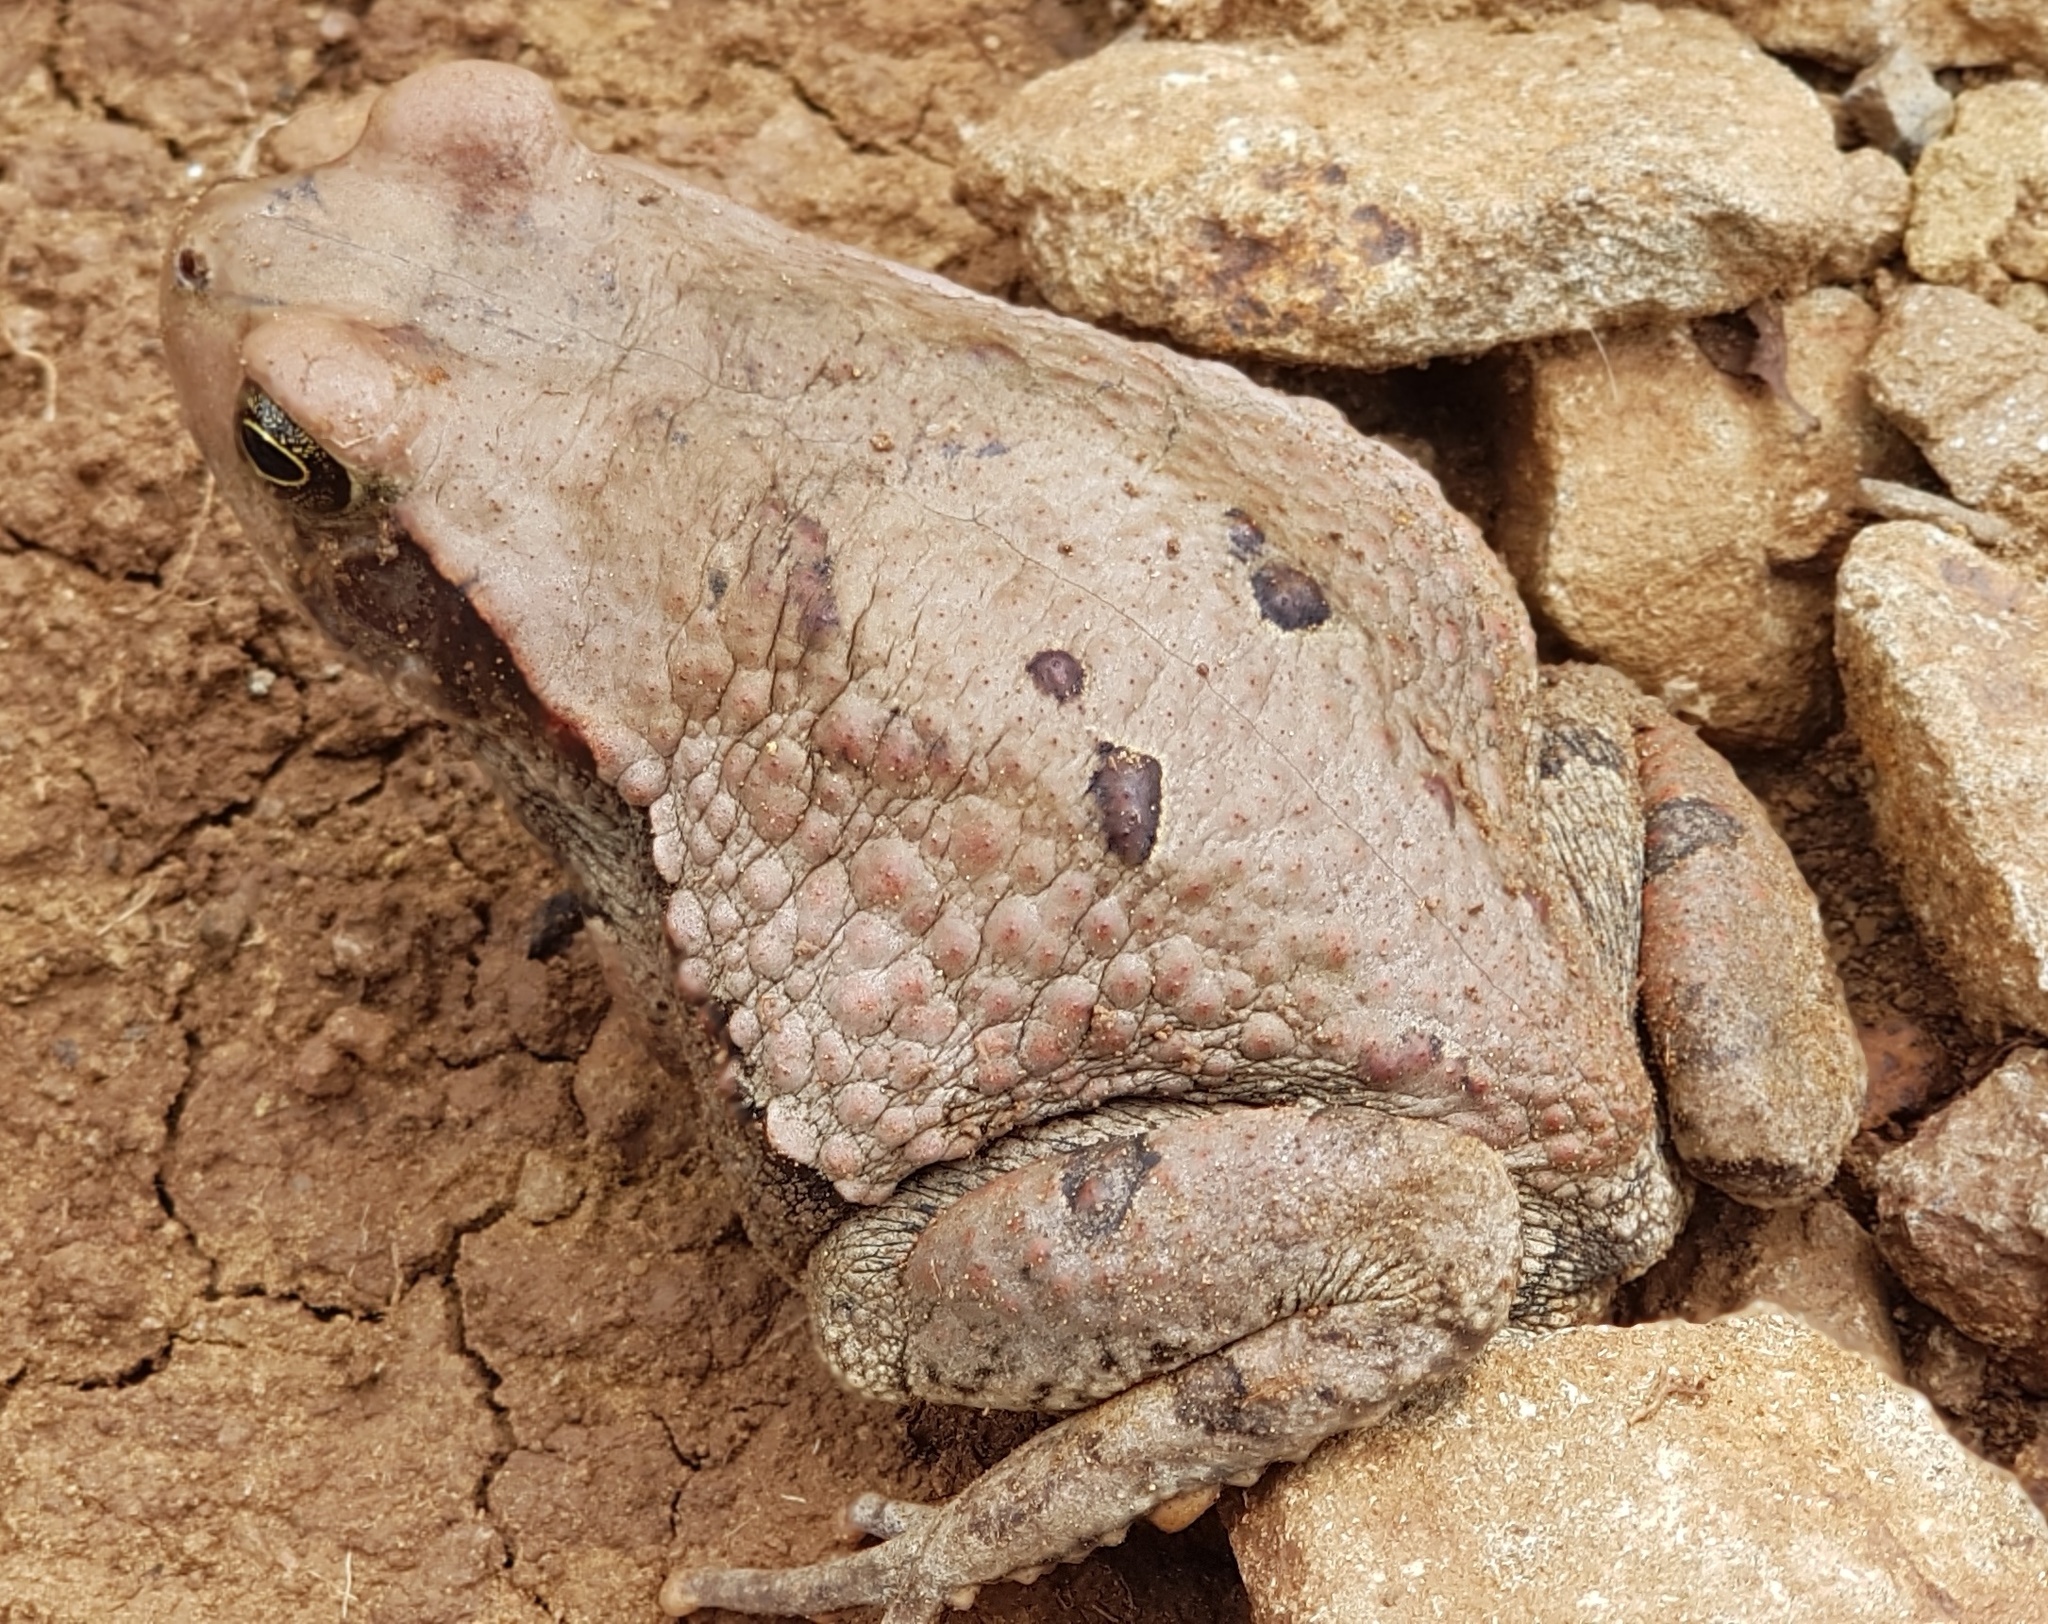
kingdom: Animalia
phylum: Chordata
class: Amphibia
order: Anura
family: Bufonidae
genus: Schismaderma
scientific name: Schismaderma carens
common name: African split-skin toad
